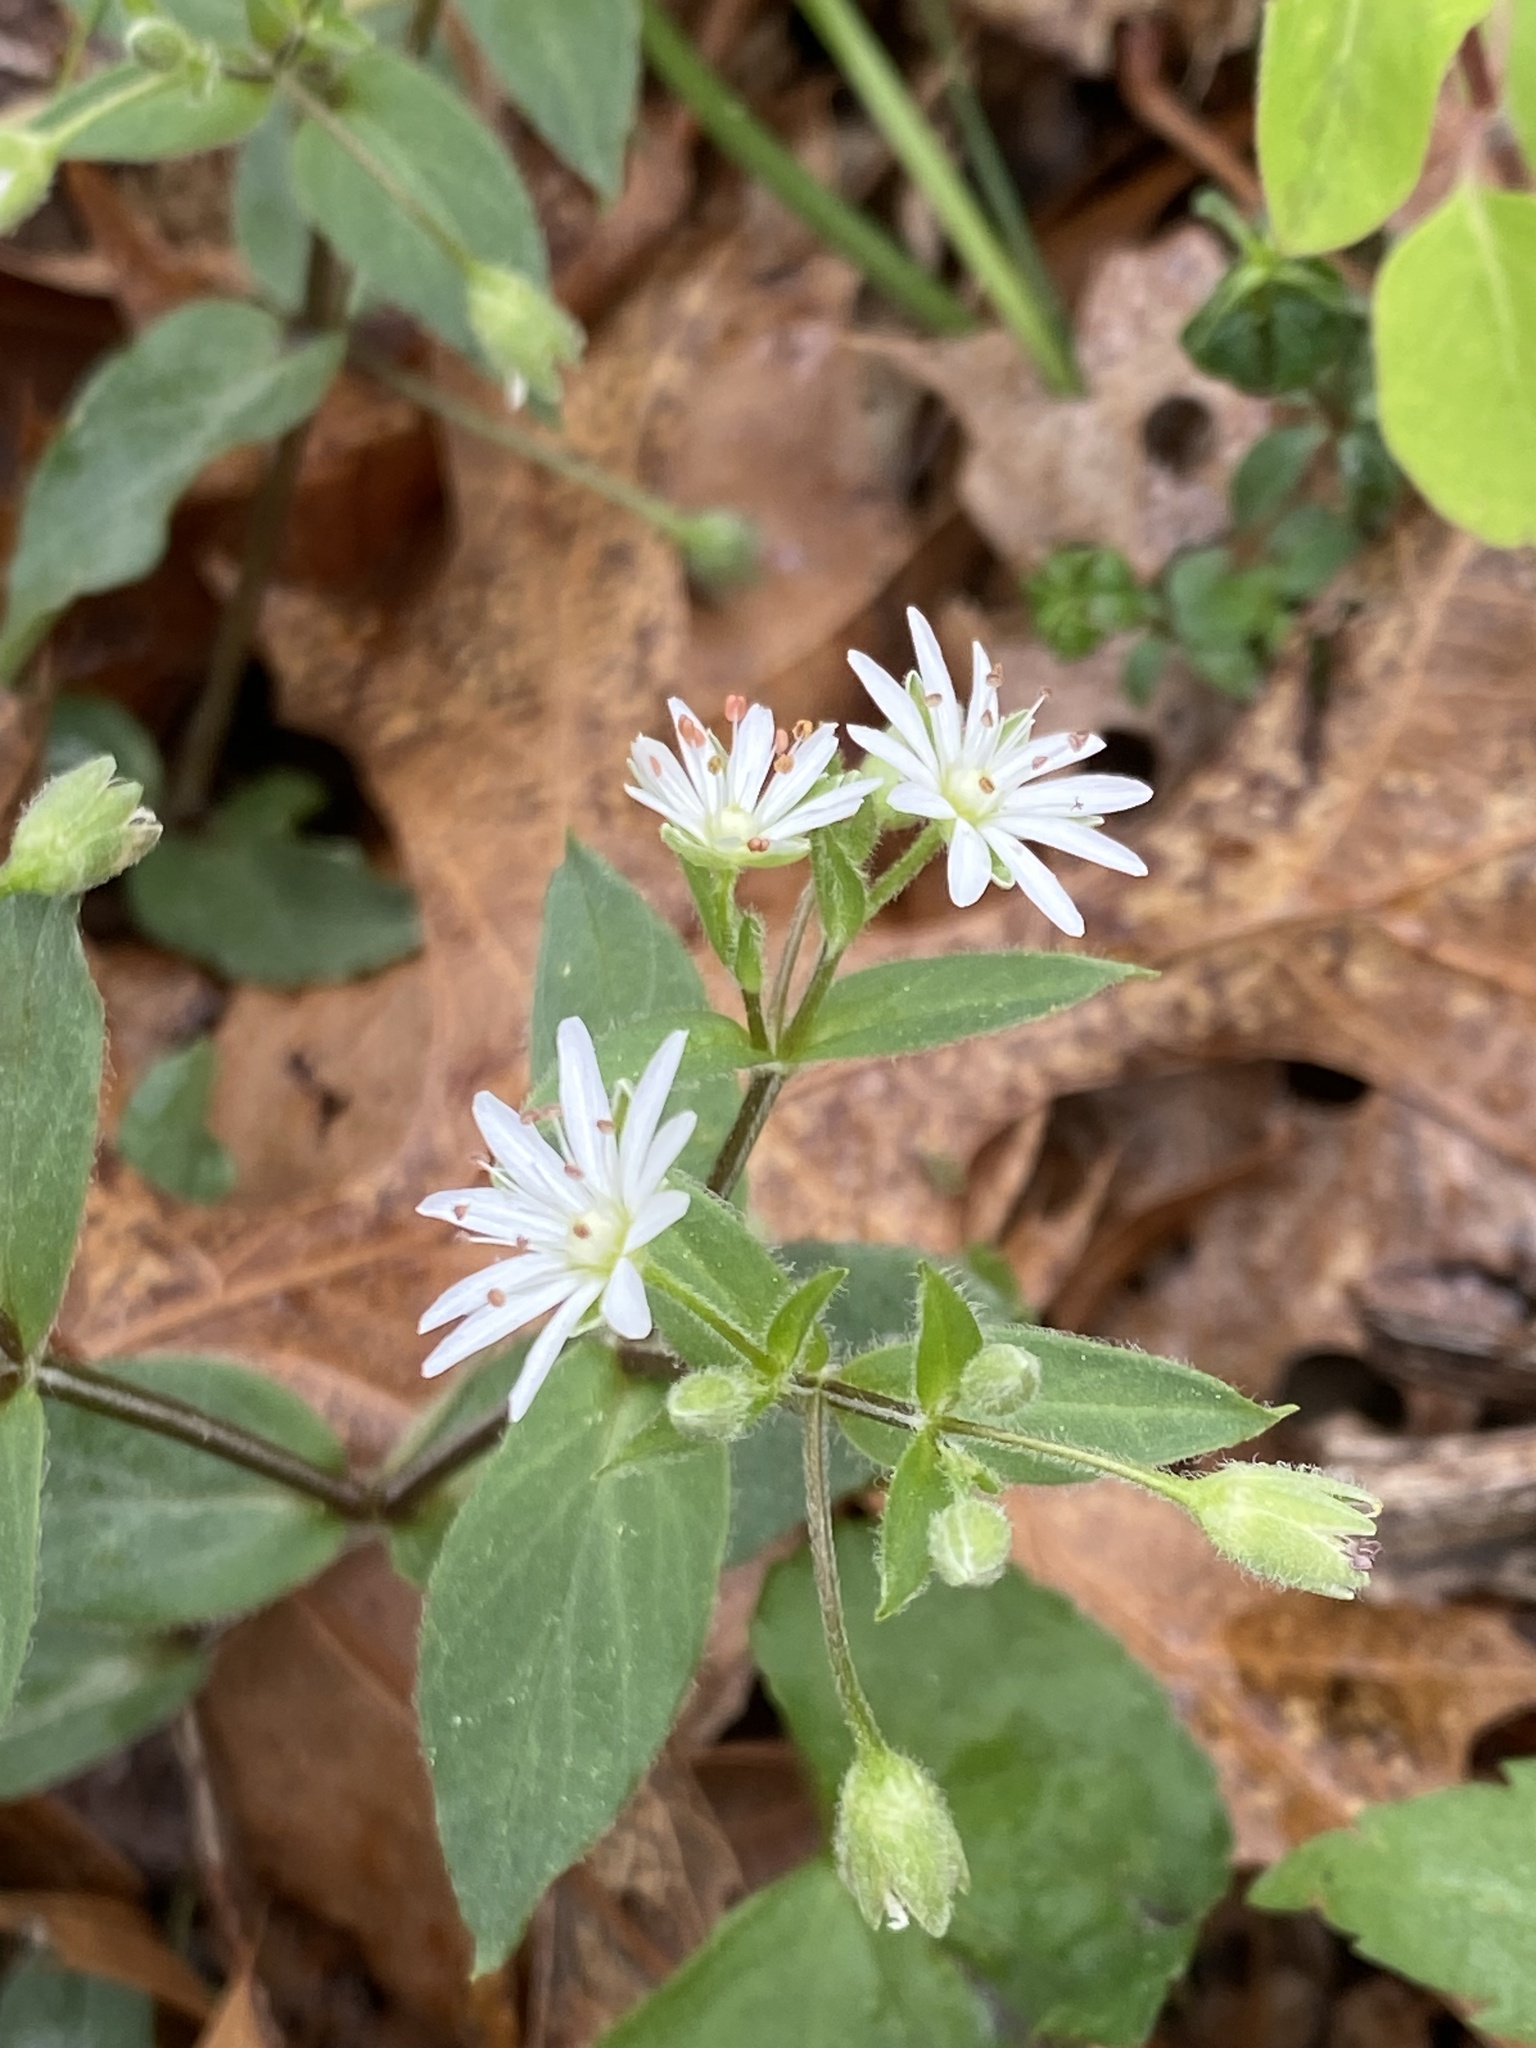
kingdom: Plantae
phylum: Tracheophyta
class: Magnoliopsida
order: Caryophyllales
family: Caryophyllaceae
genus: Stellaria
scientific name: Stellaria pubera
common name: Star chickweed
